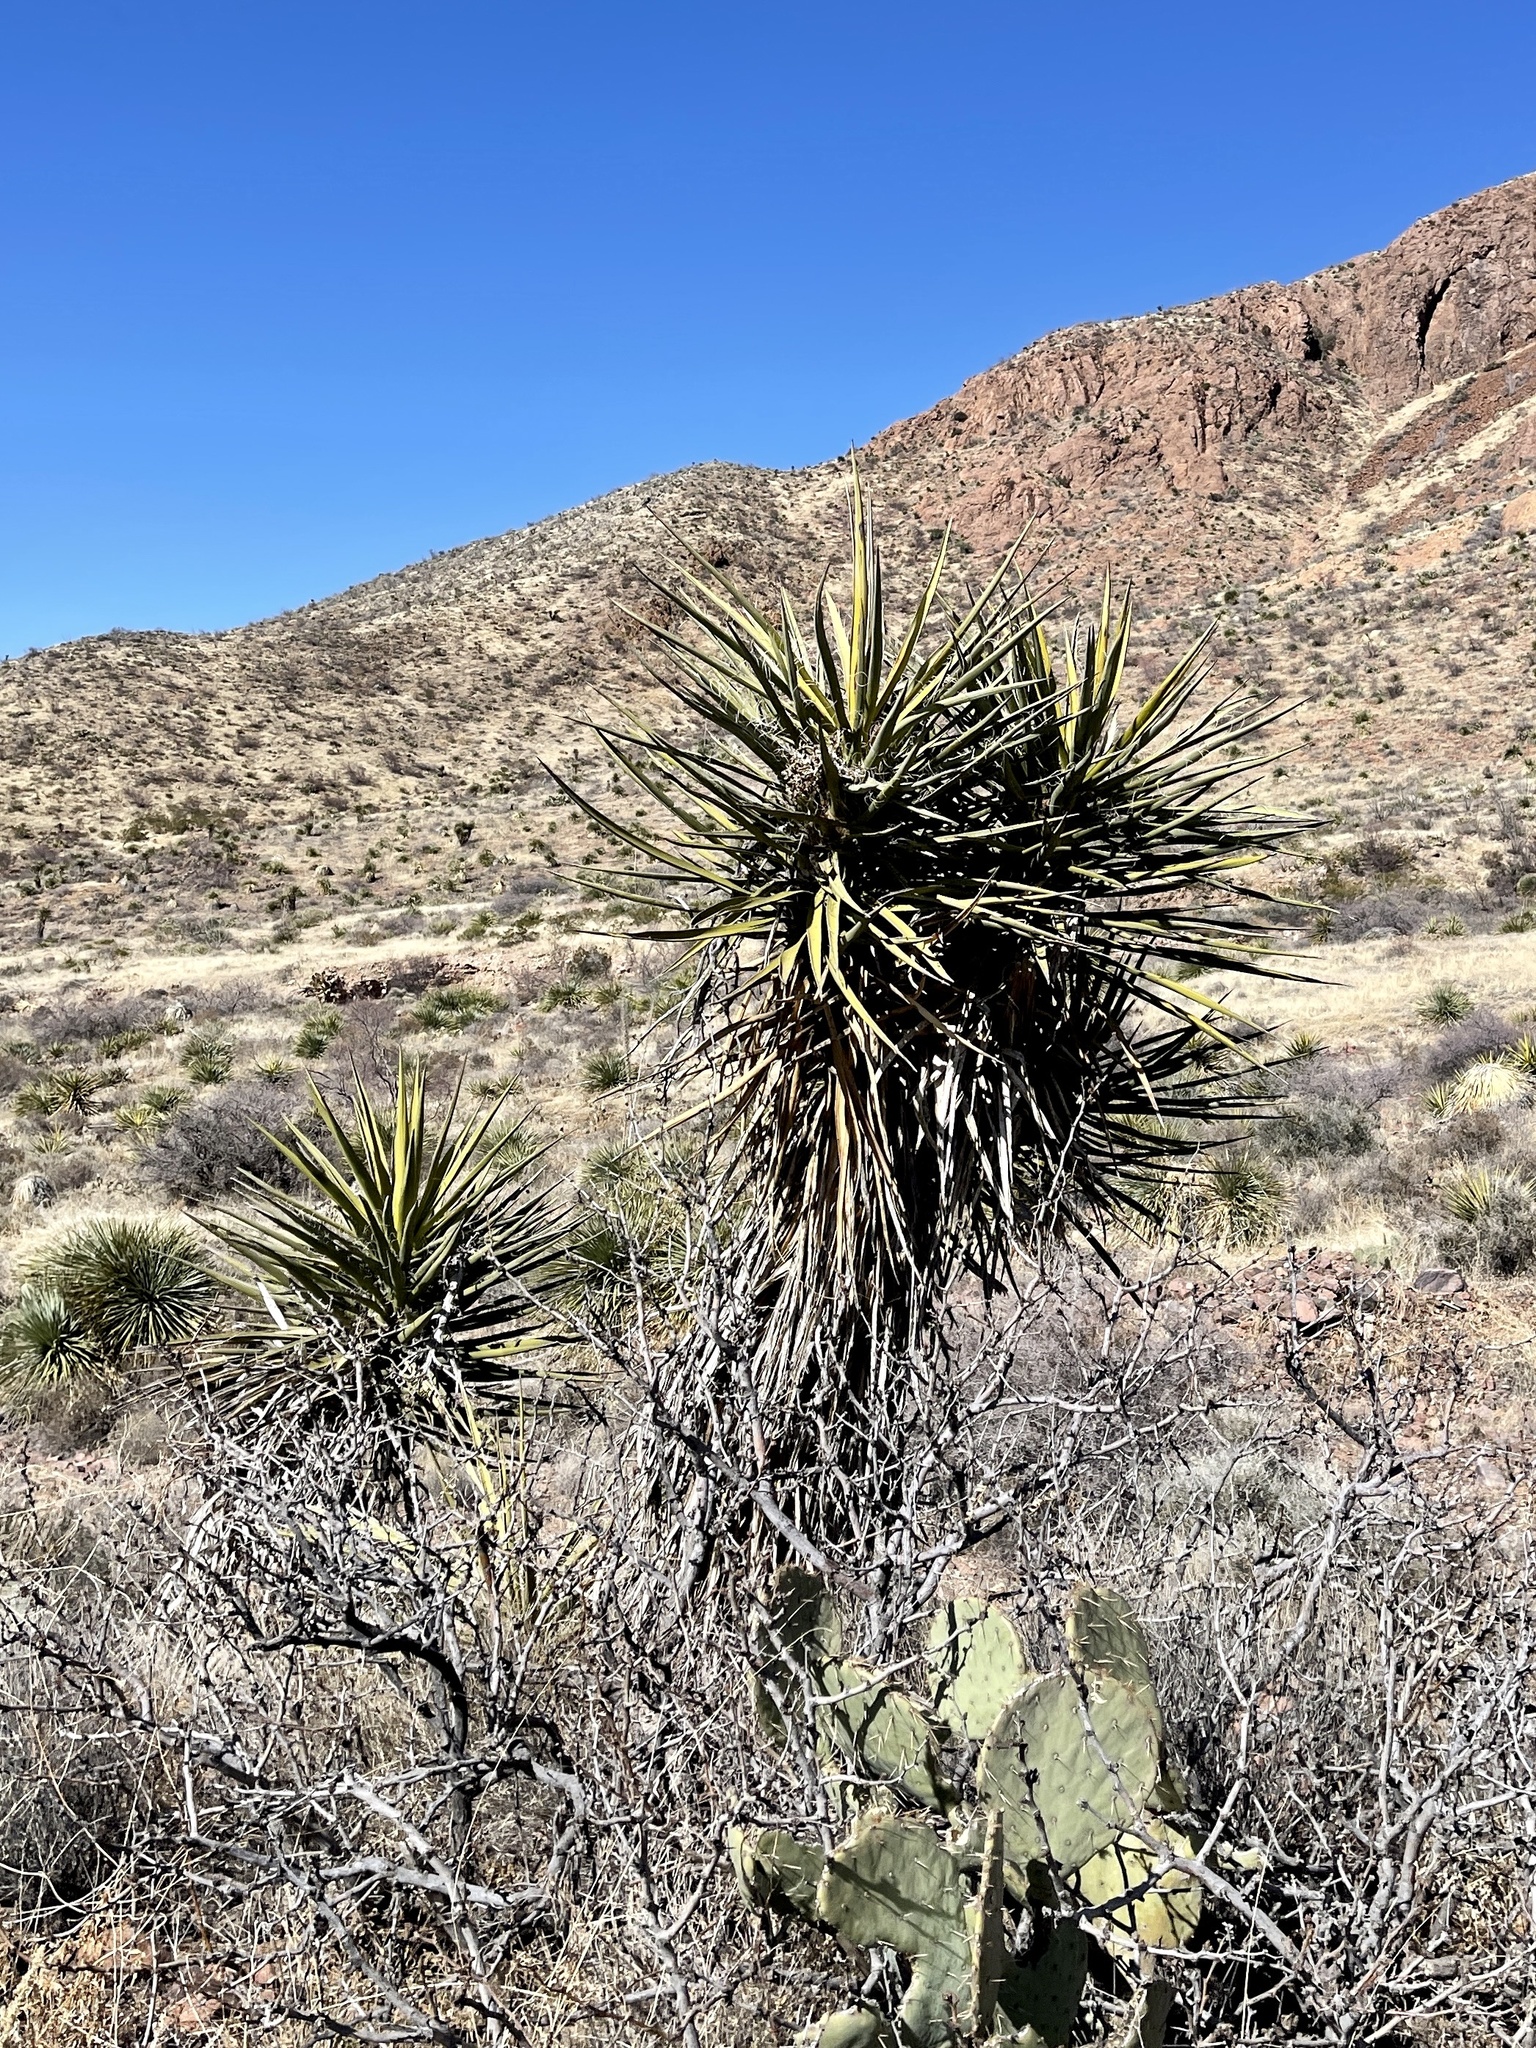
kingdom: Plantae
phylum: Tracheophyta
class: Liliopsida
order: Asparagales
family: Asparagaceae
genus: Yucca
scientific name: Yucca treculiana
